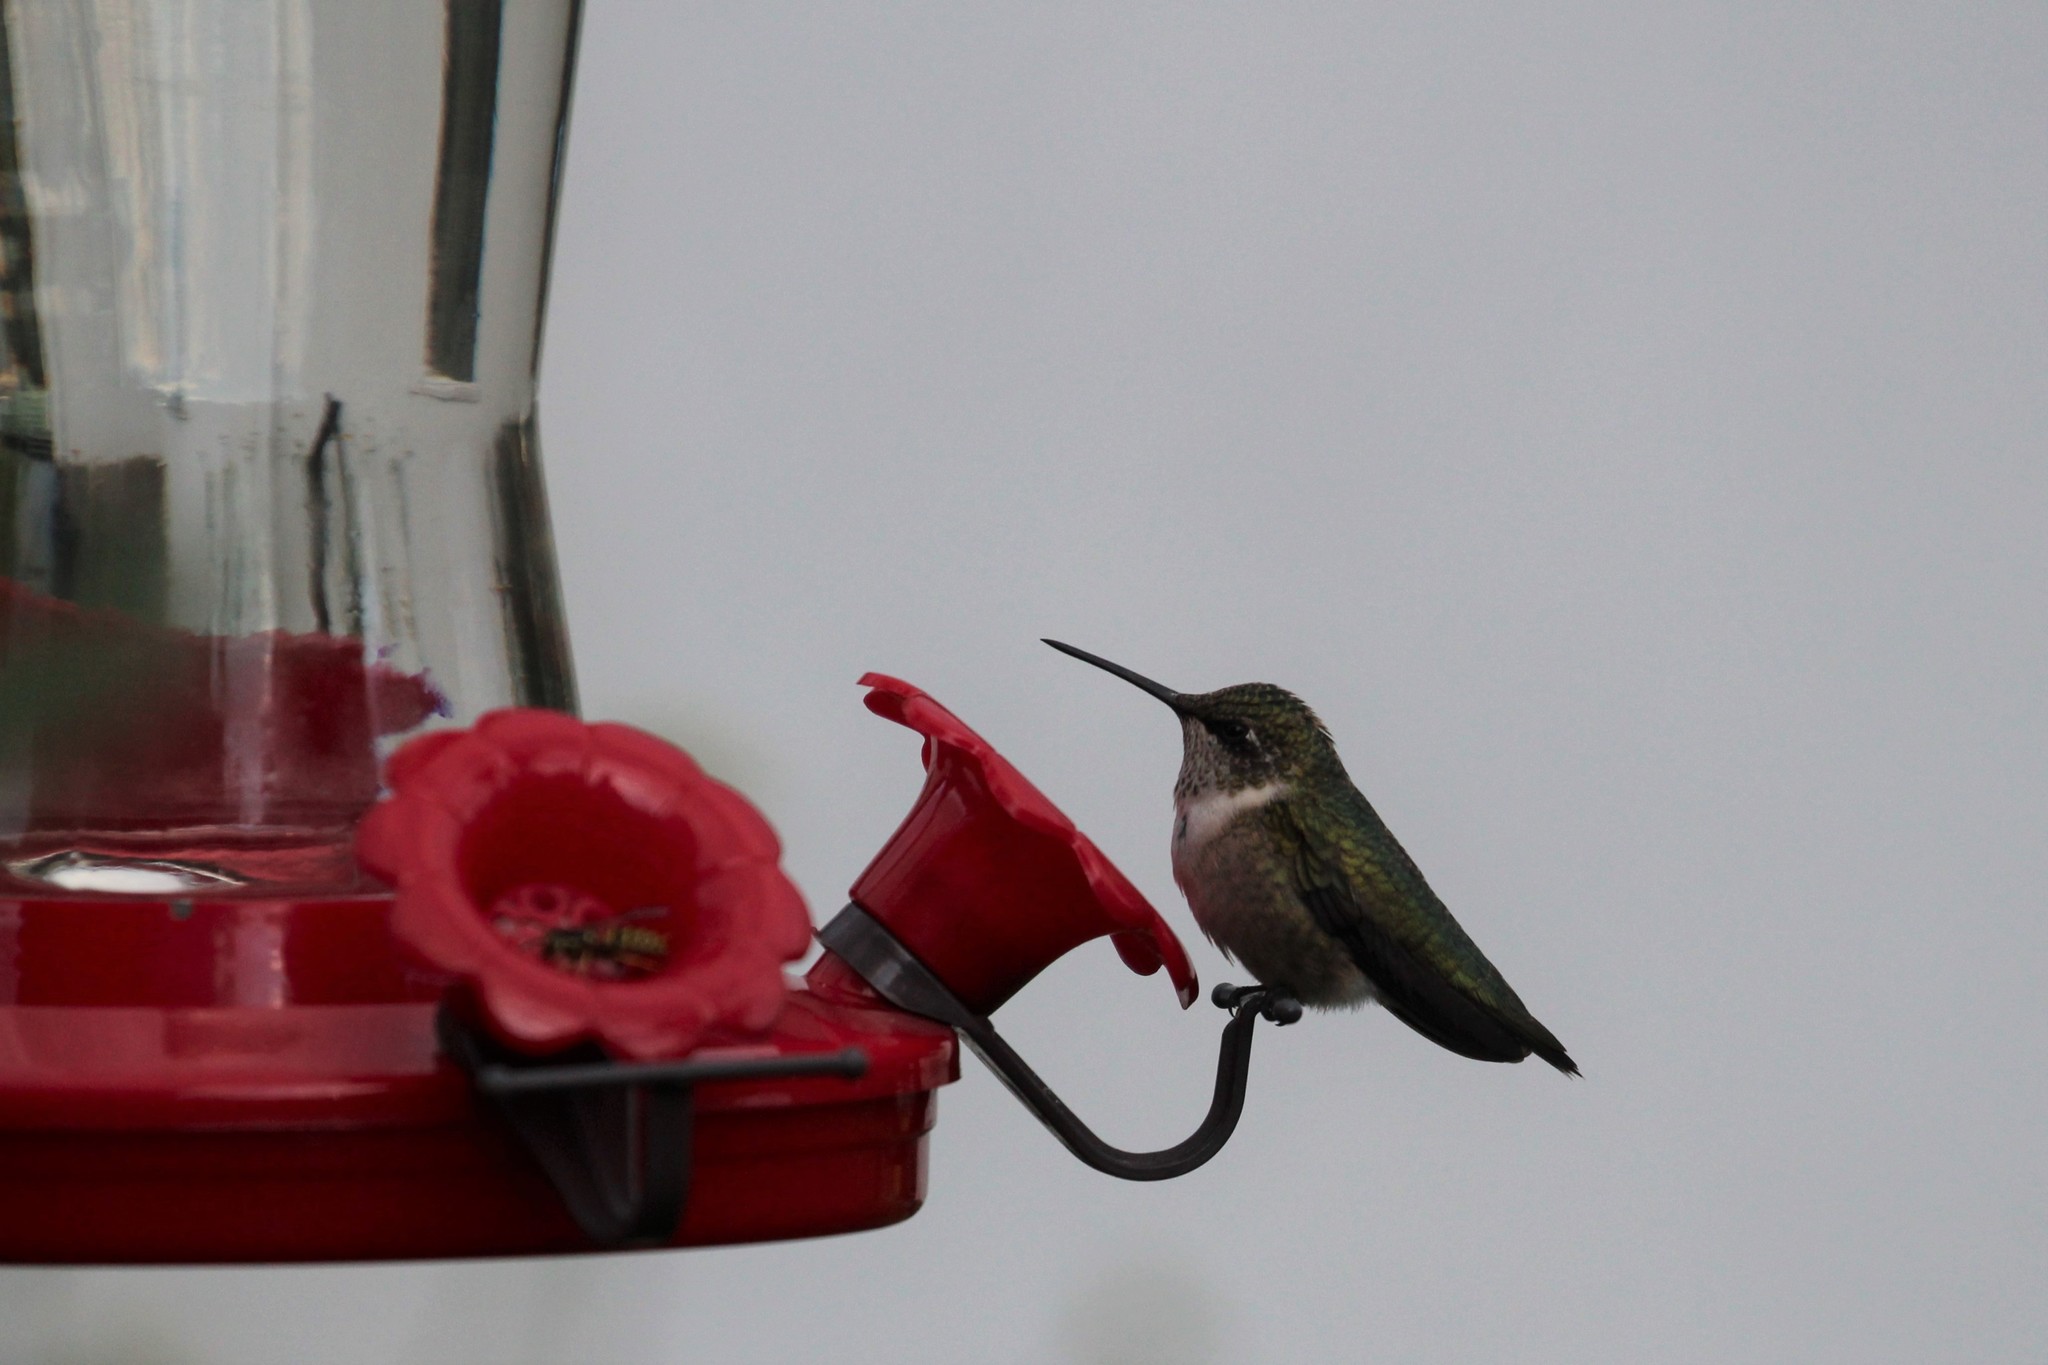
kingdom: Animalia
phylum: Chordata
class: Aves
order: Apodiformes
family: Trochilidae
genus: Archilochus
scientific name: Archilochus colubris
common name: Ruby-throated hummingbird
